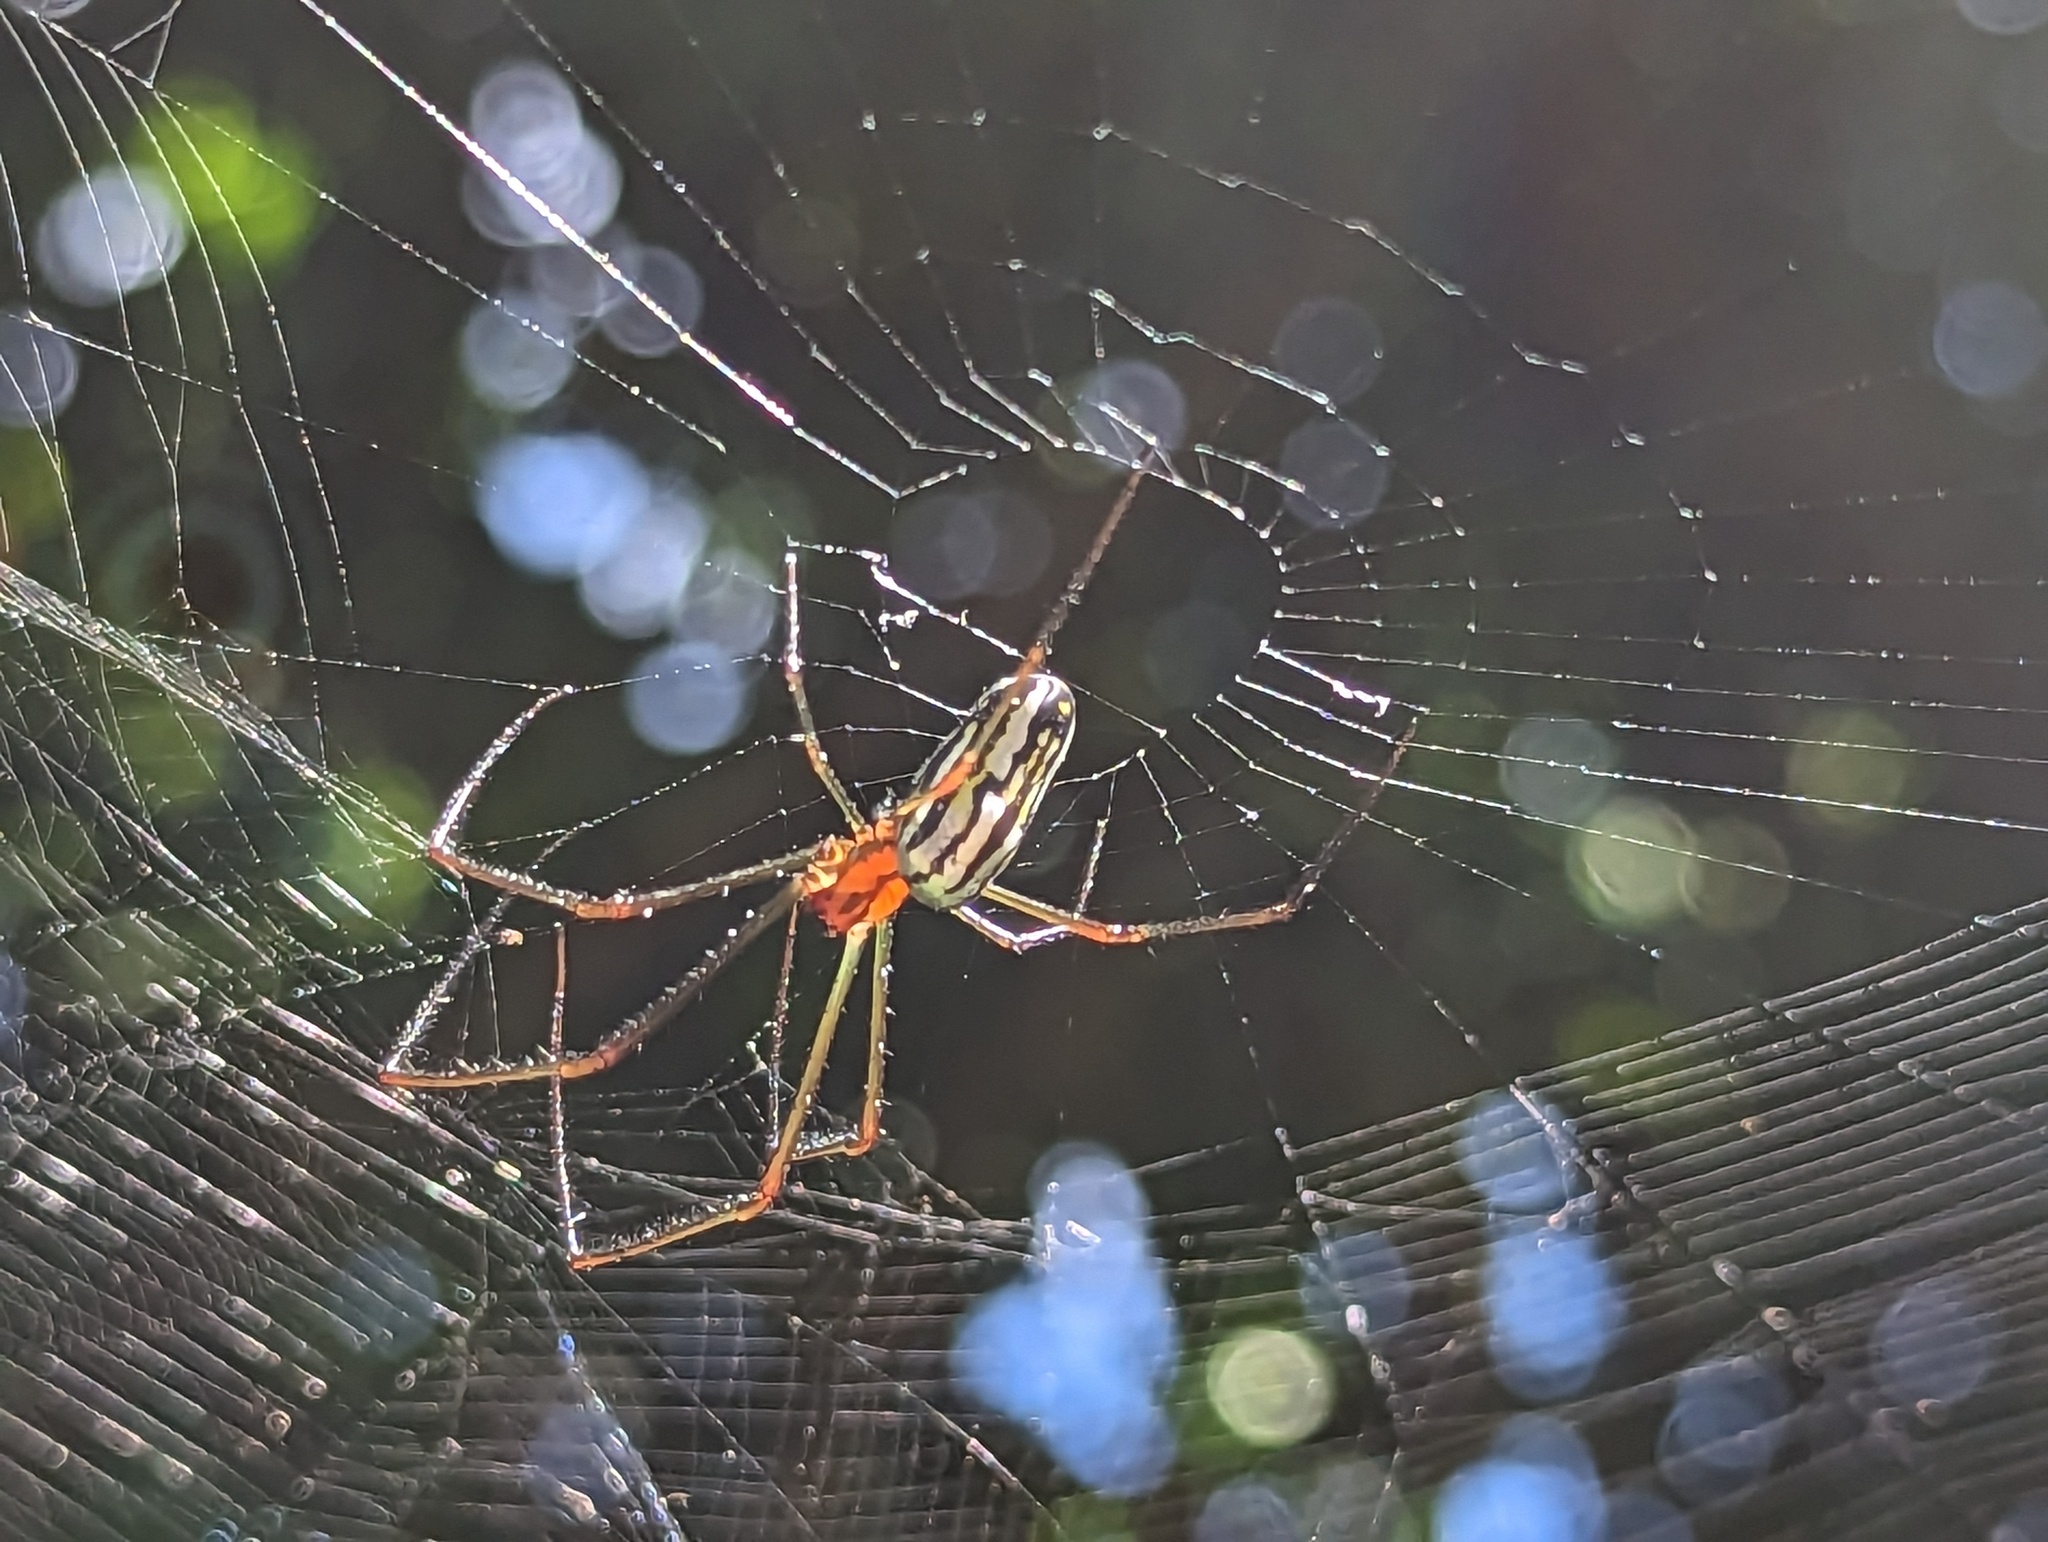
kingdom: Animalia
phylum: Arthropoda
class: Arachnida
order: Araneae
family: Tetragnathidae
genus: Leucauge
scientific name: Leucauge argyra
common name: Longjawed orb weavers
